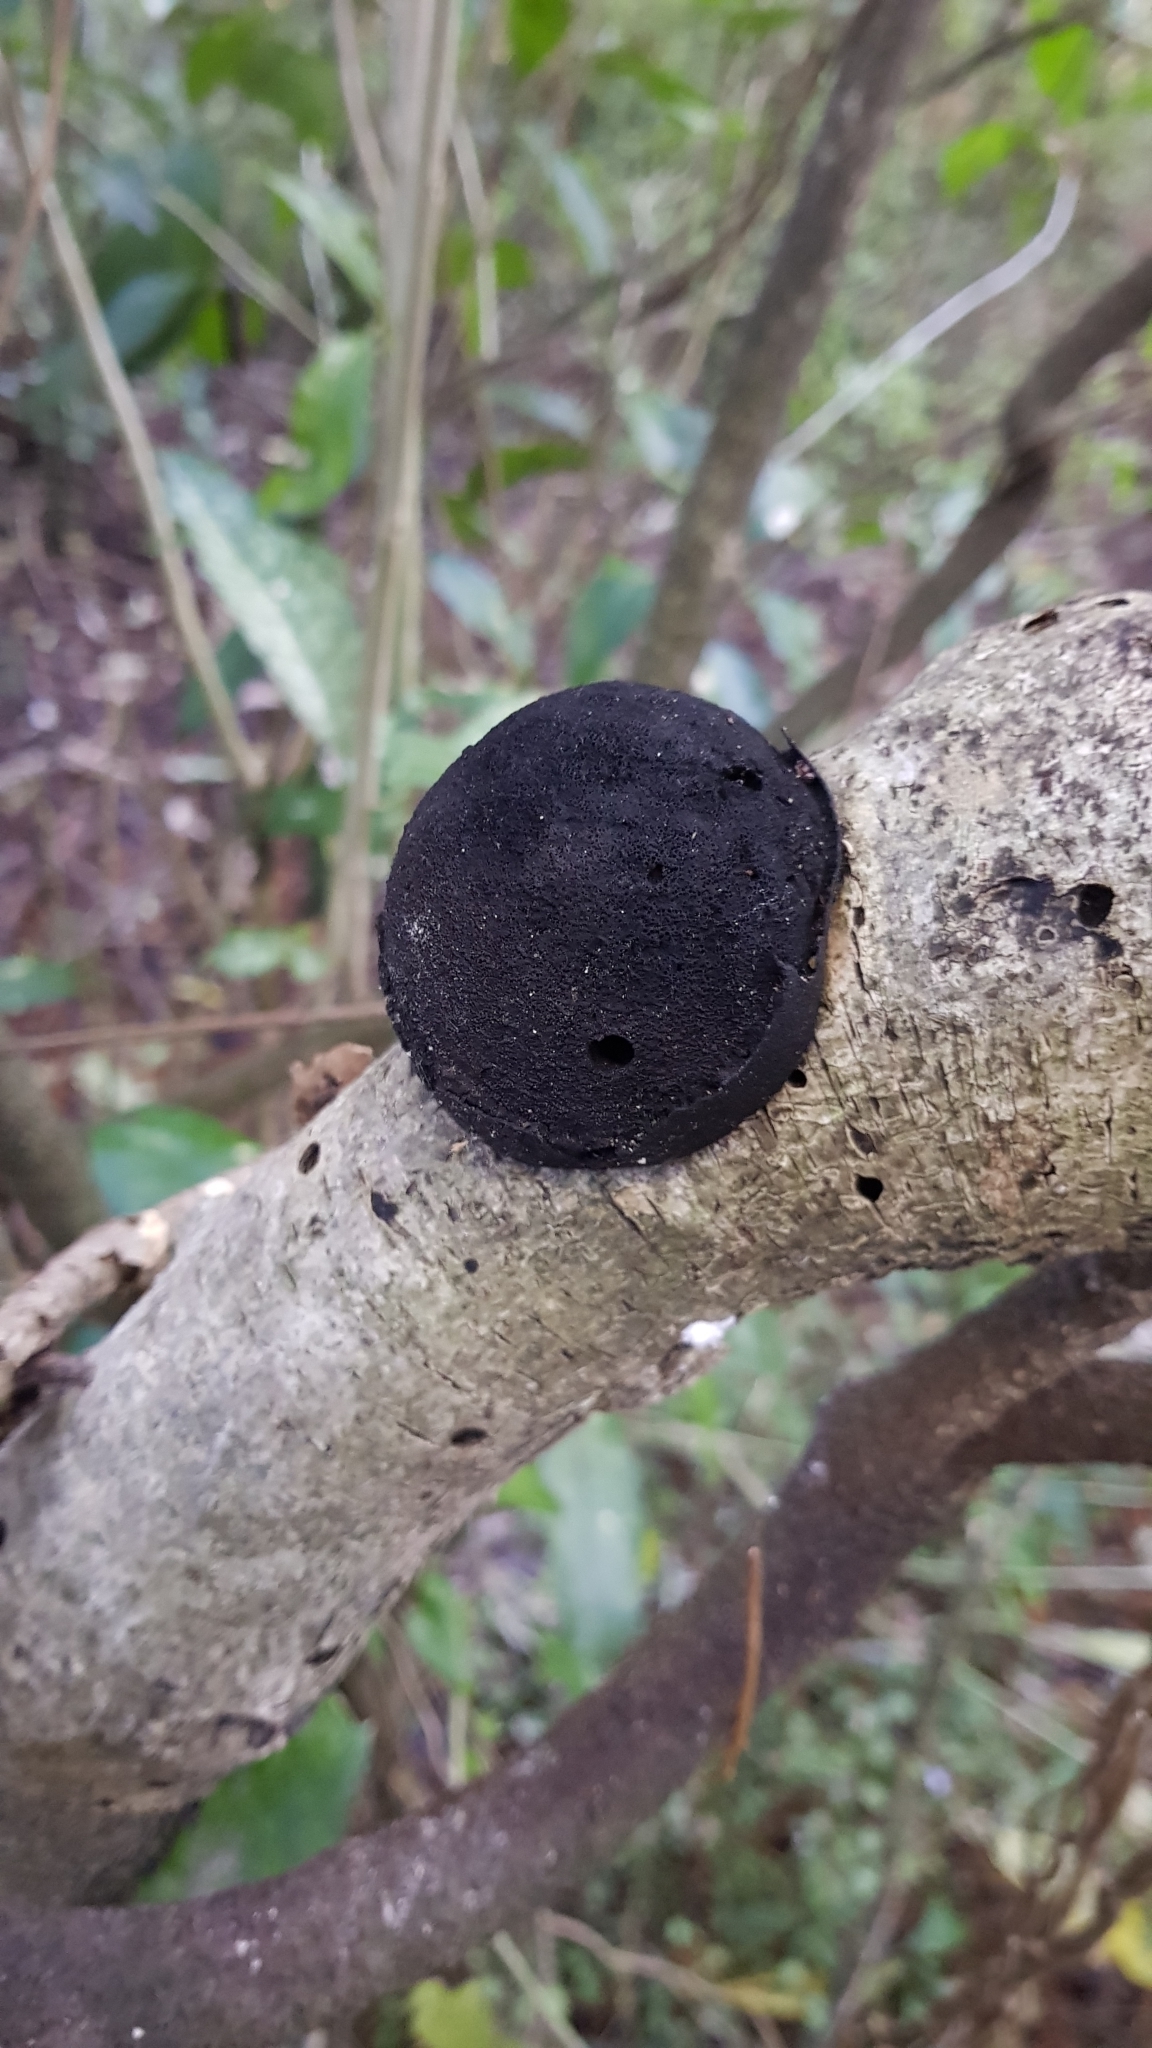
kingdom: Fungi
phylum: Ascomycota
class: Sordariomycetes
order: Xylariales
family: Hypoxylaceae
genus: Daldinia
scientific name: Daldinia
